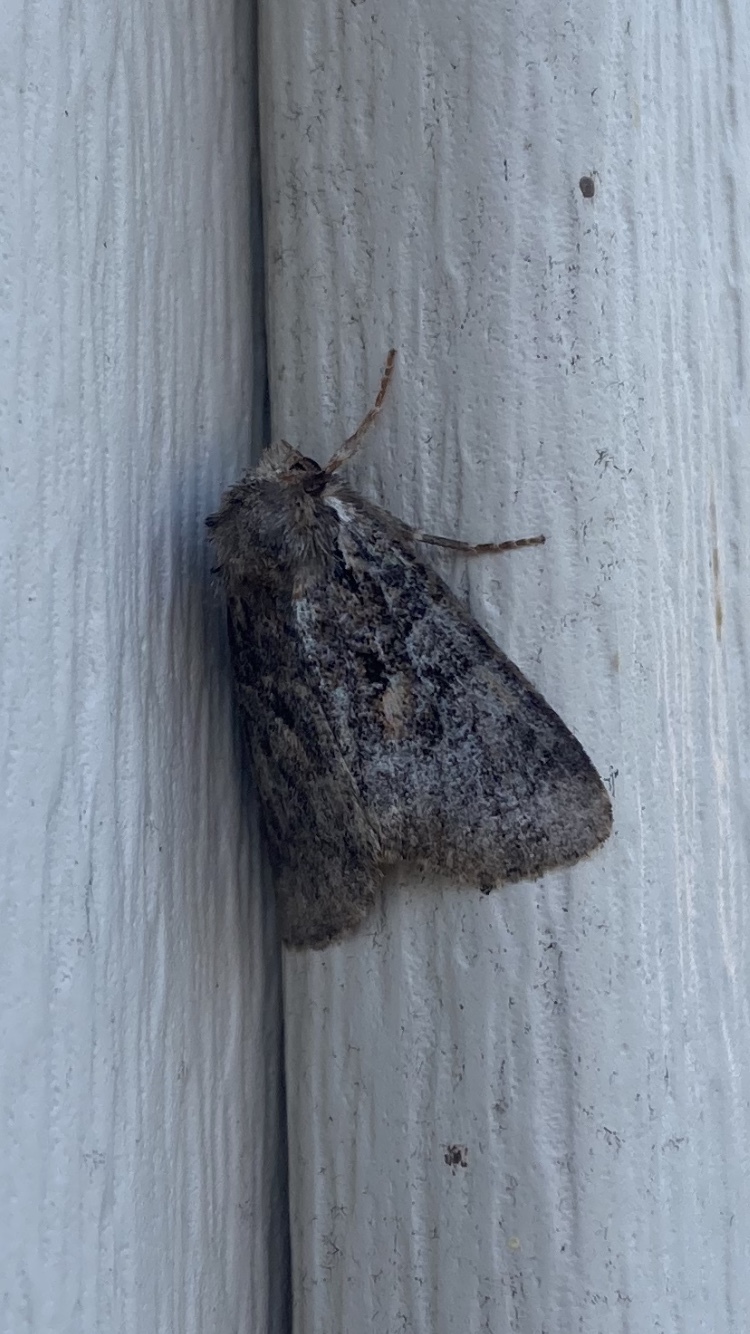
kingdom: Animalia
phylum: Arthropoda
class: Insecta
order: Lepidoptera
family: Noctuidae
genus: Orthodes
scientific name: Orthodes detracta
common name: Disparaged arches moth
